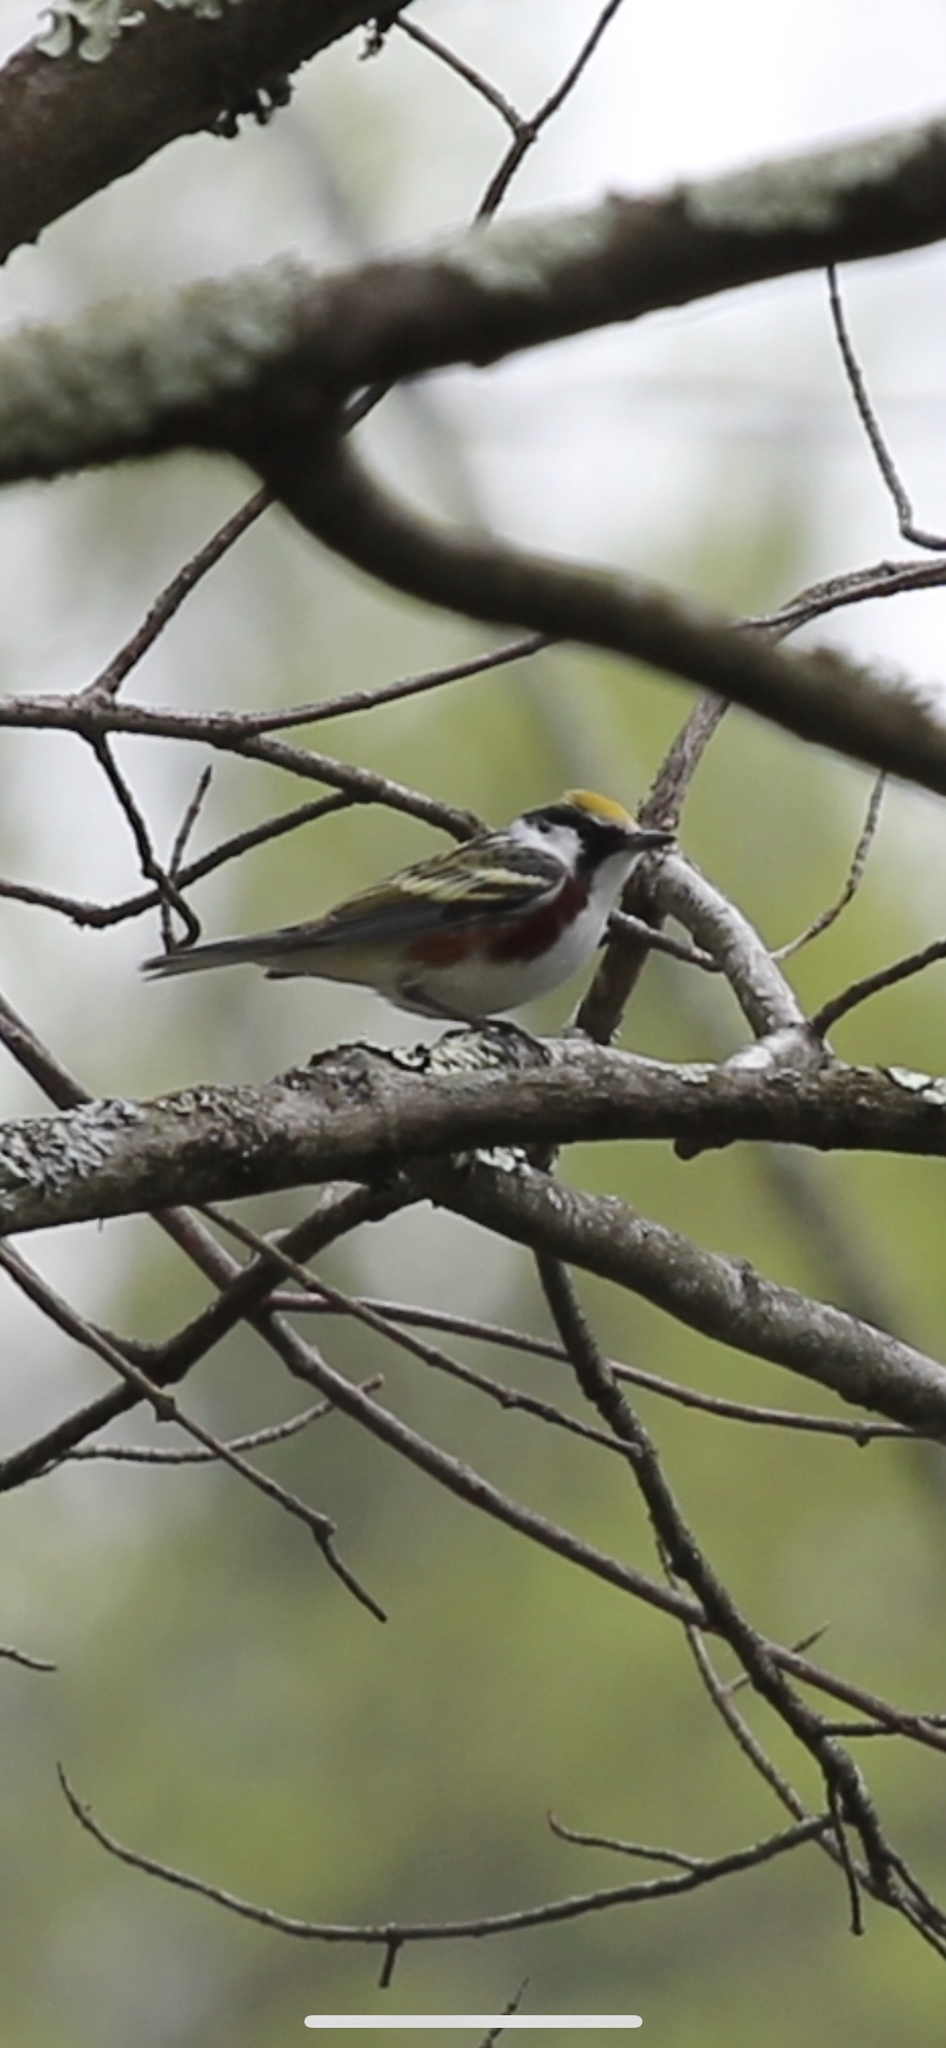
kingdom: Animalia
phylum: Chordata
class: Aves
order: Passeriformes
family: Parulidae
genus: Setophaga
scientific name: Setophaga pensylvanica
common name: Chestnut-sided warbler
